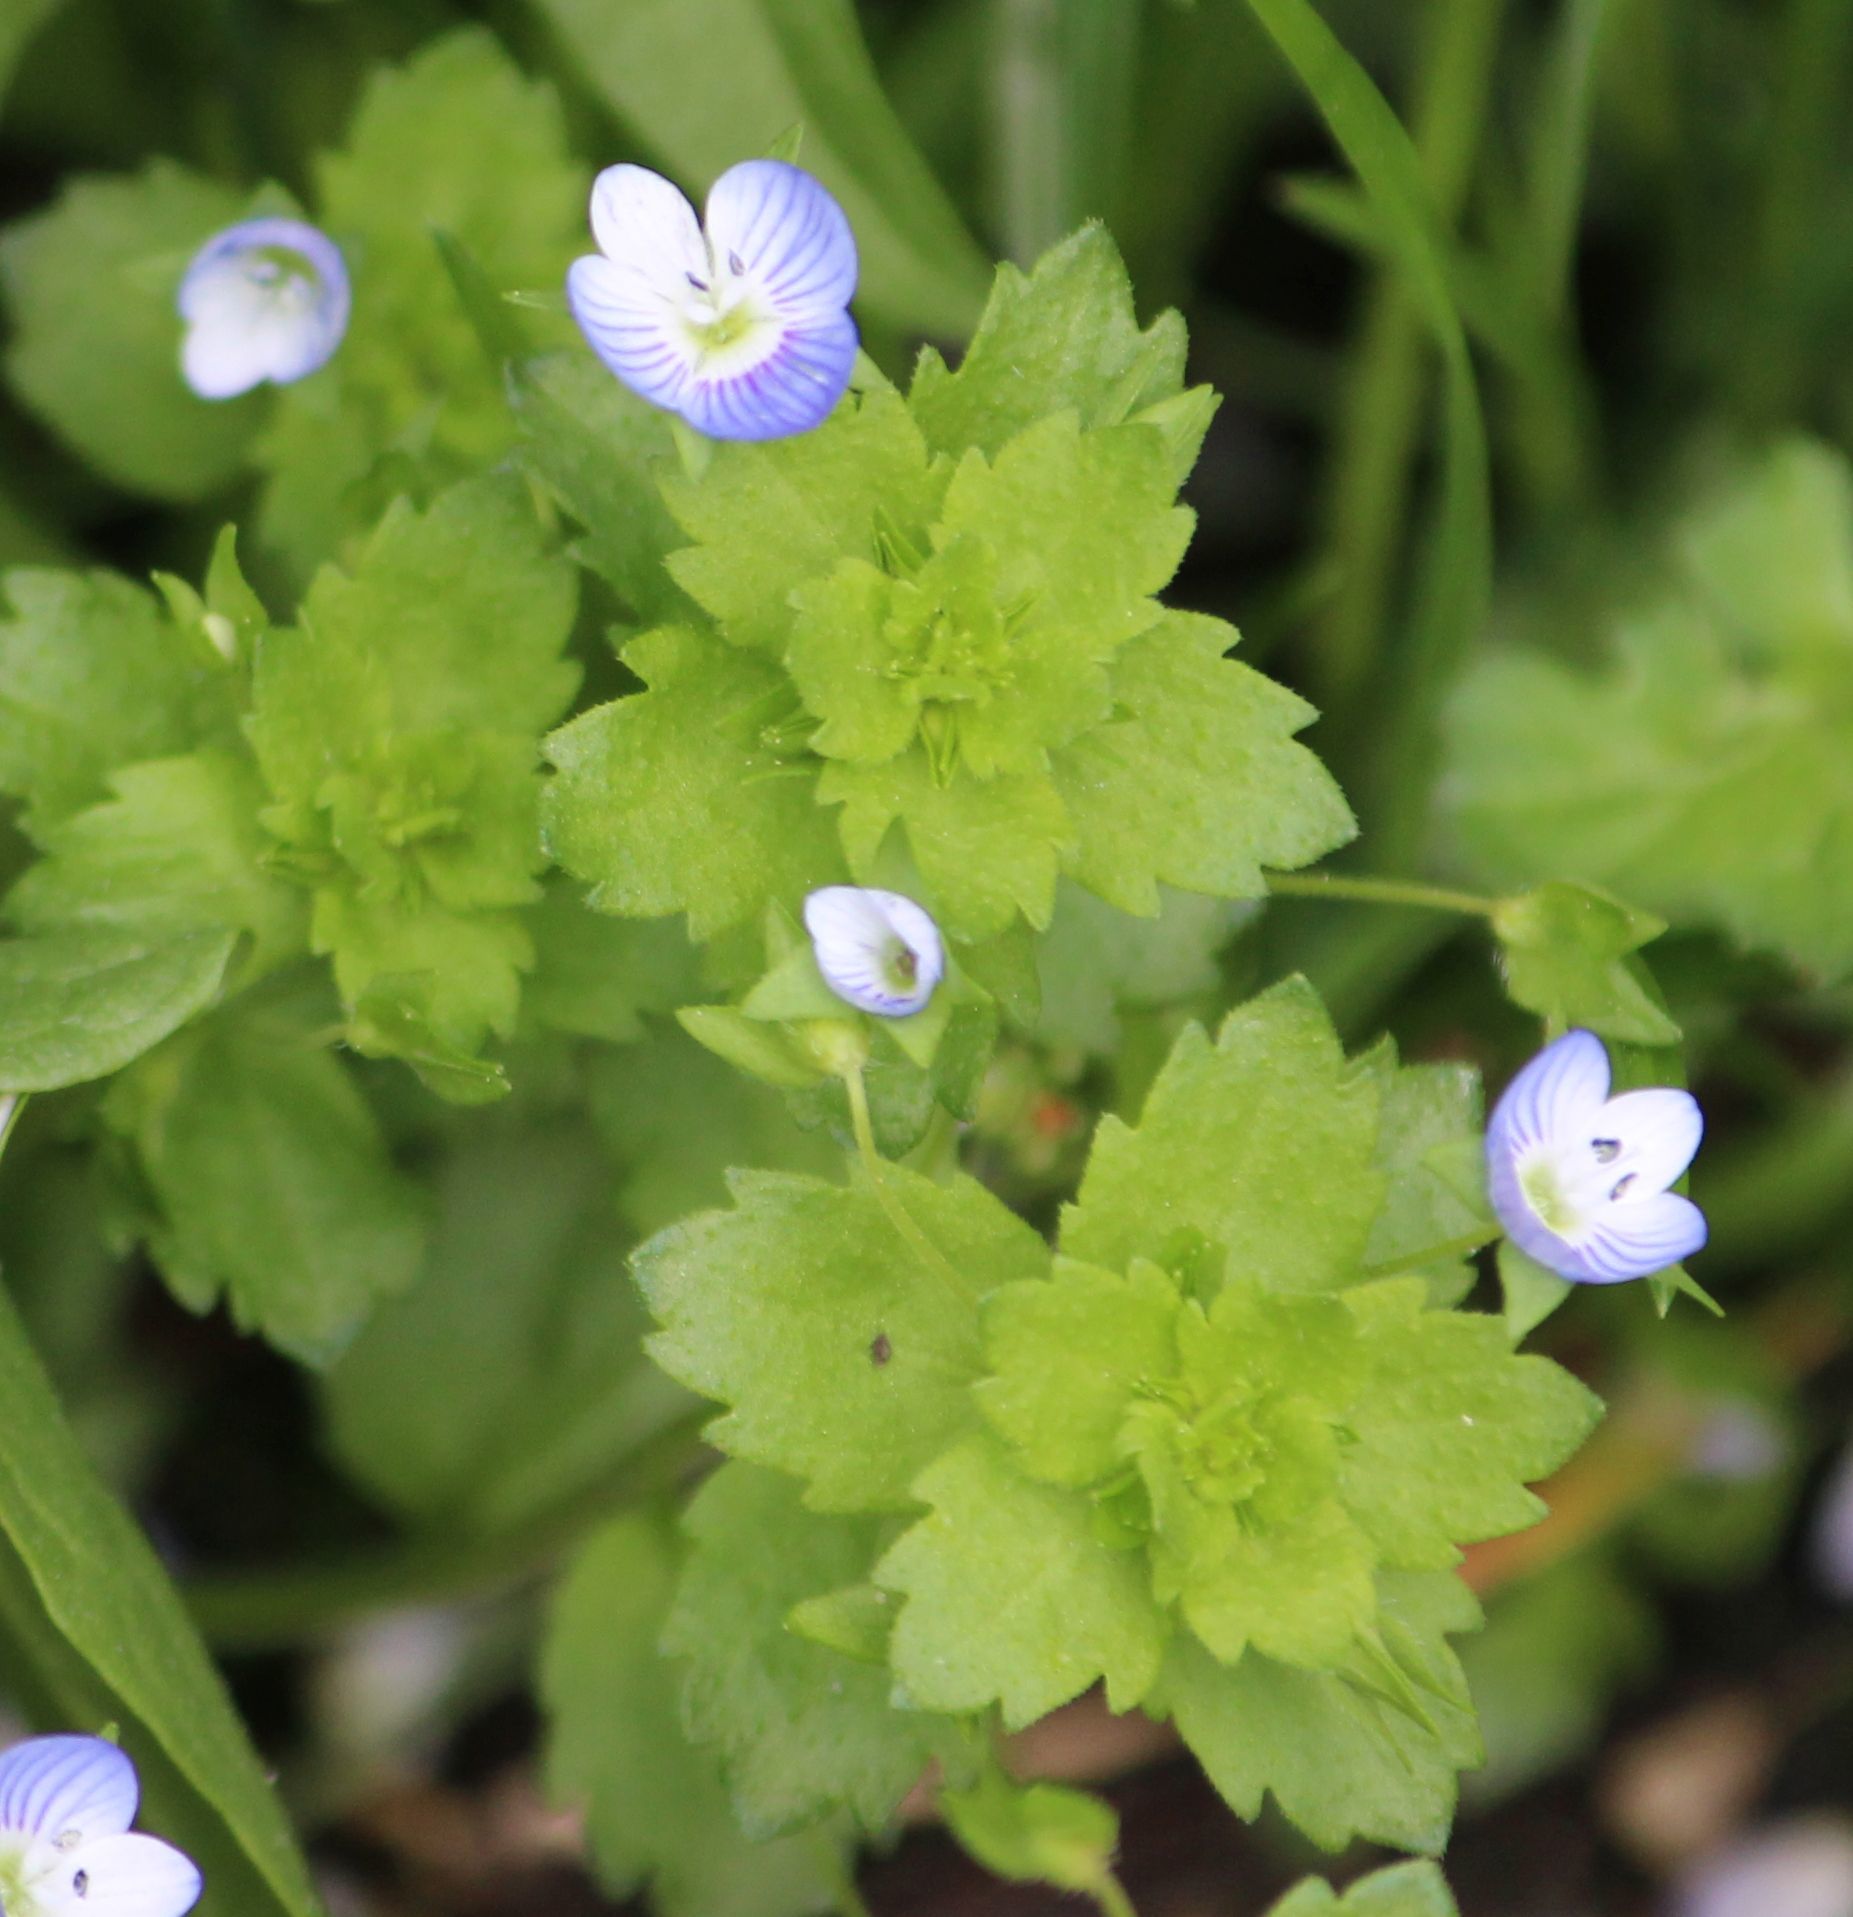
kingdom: Plantae
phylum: Tracheophyta
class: Magnoliopsida
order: Lamiales
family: Plantaginaceae
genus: Veronica
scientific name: Veronica persica
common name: Common field-speedwell
